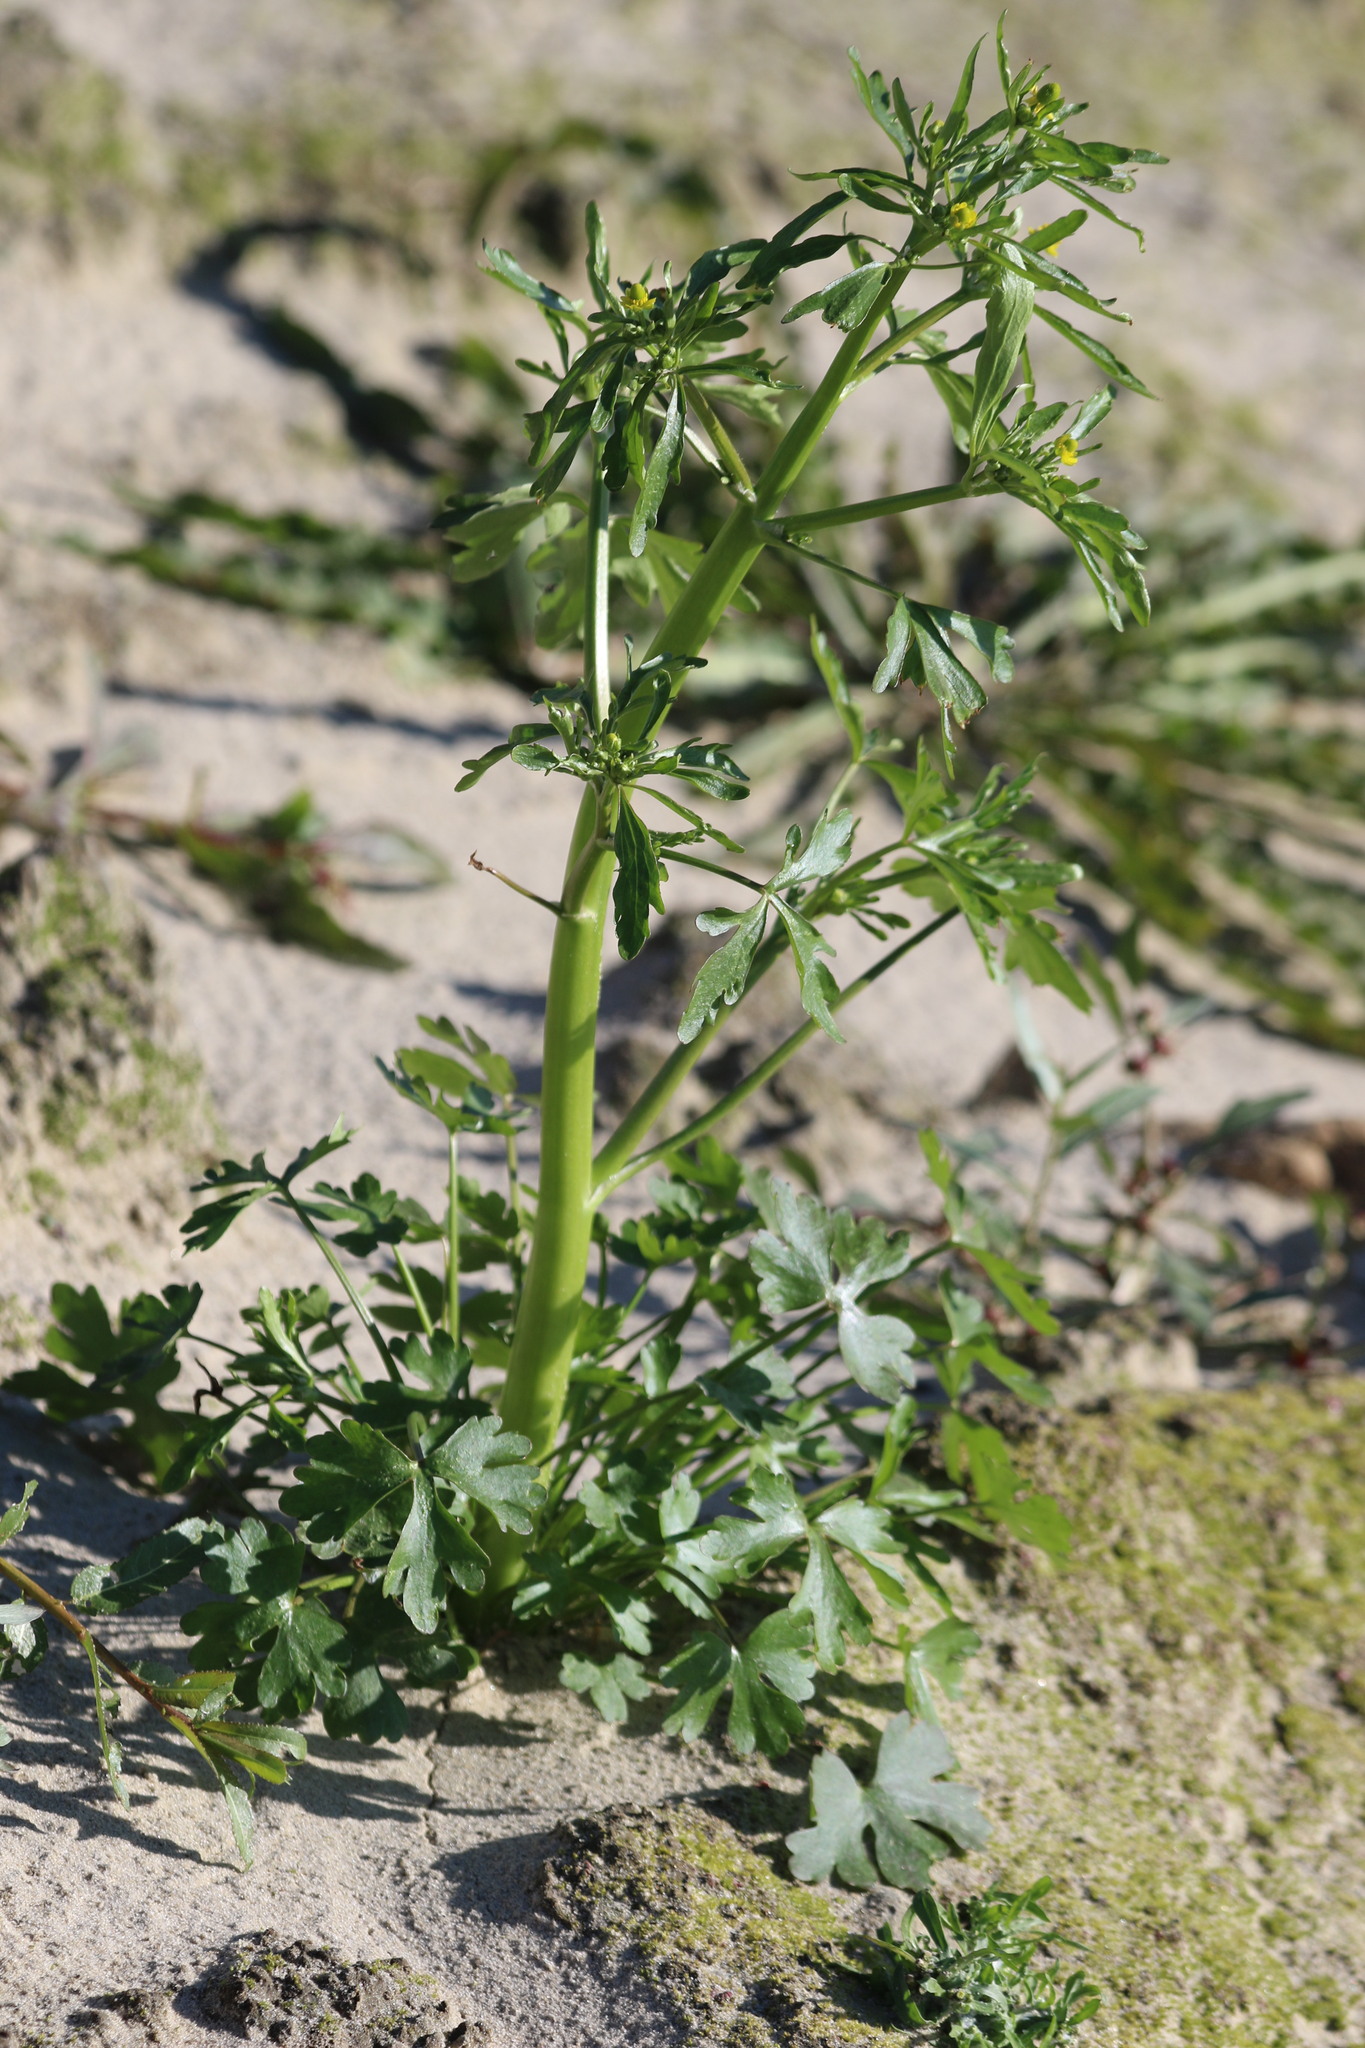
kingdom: Plantae
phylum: Tracheophyta
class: Magnoliopsida
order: Ranunculales
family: Ranunculaceae
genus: Ranunculus
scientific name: Ranunculus sceleratus
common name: Celery-leaved buttercup
